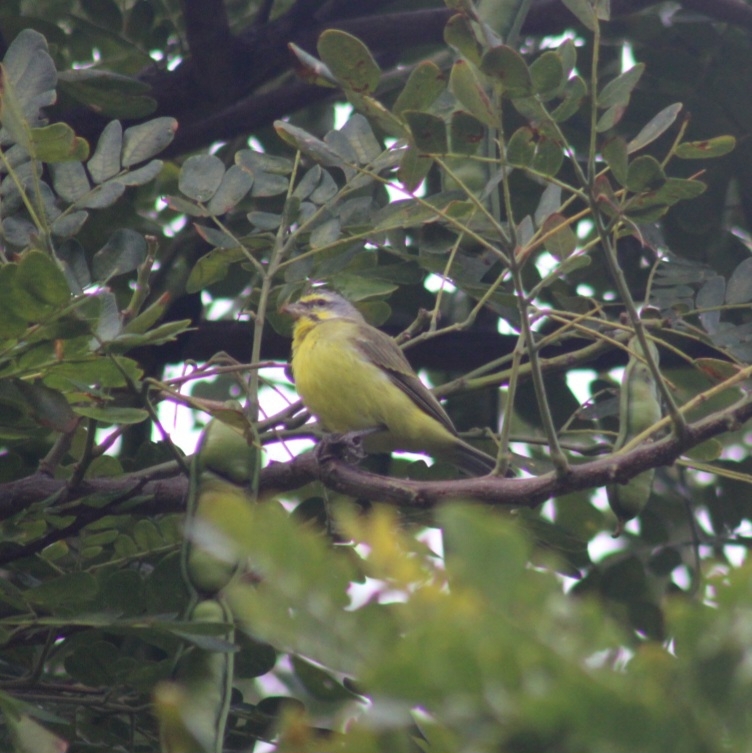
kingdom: Animalia
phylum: Chordata
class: Aves
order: Passeriformes
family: Fringillidae
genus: Crithagra
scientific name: Crithagra mozambica
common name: Yellow-fronted canary
